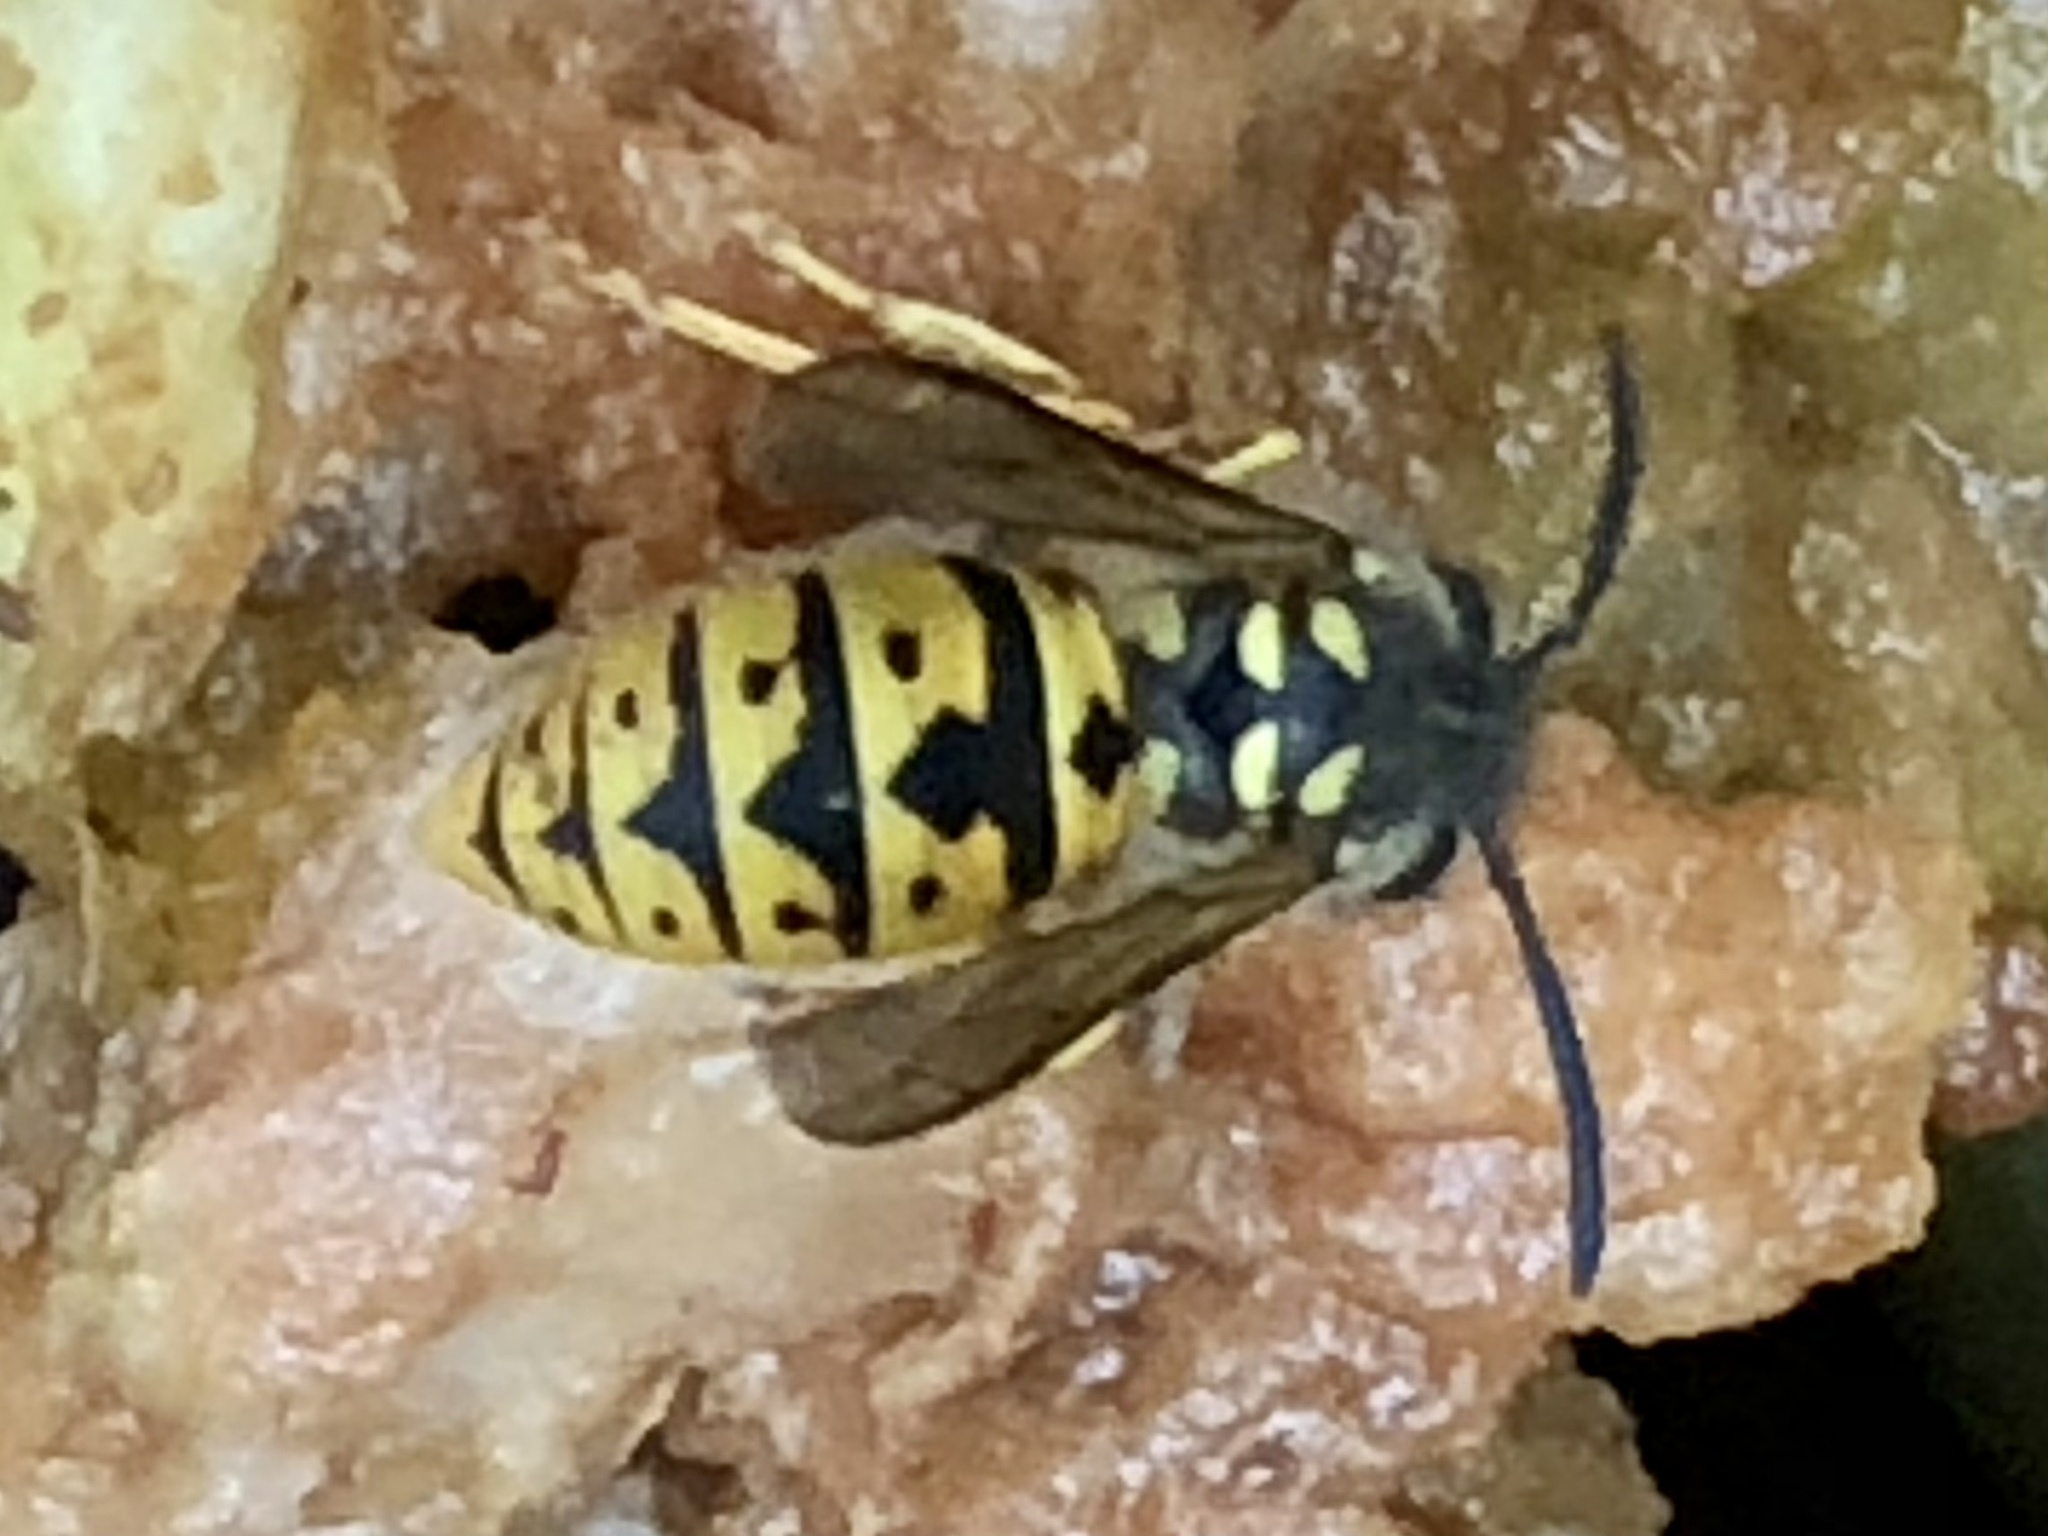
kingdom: Animalia
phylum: Arthropoda
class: Insecta
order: Hymenoptera
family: Vespidae
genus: Vespula
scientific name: Vespula germanica
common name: German wasp
